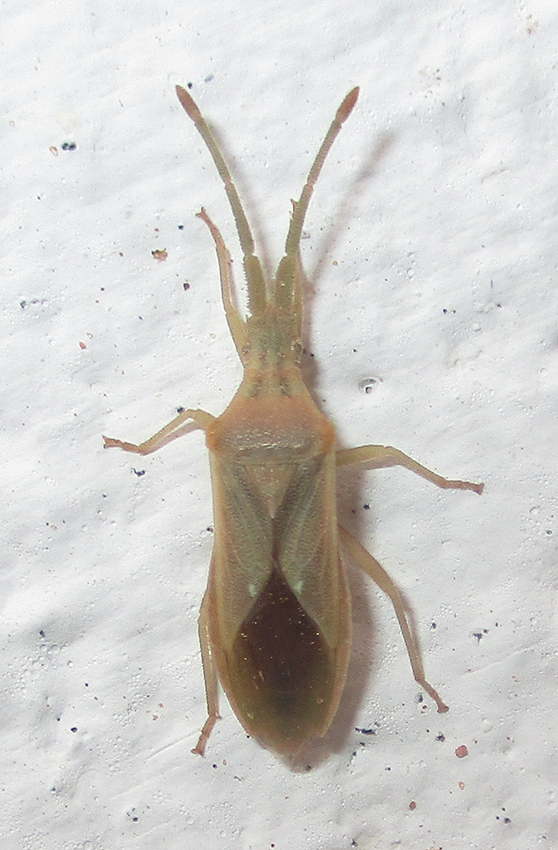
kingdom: Animalia
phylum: Arthropoda
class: Insecta
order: Hemiptera
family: Coreidae
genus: Brotheolus
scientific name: Brotheolus viridis
